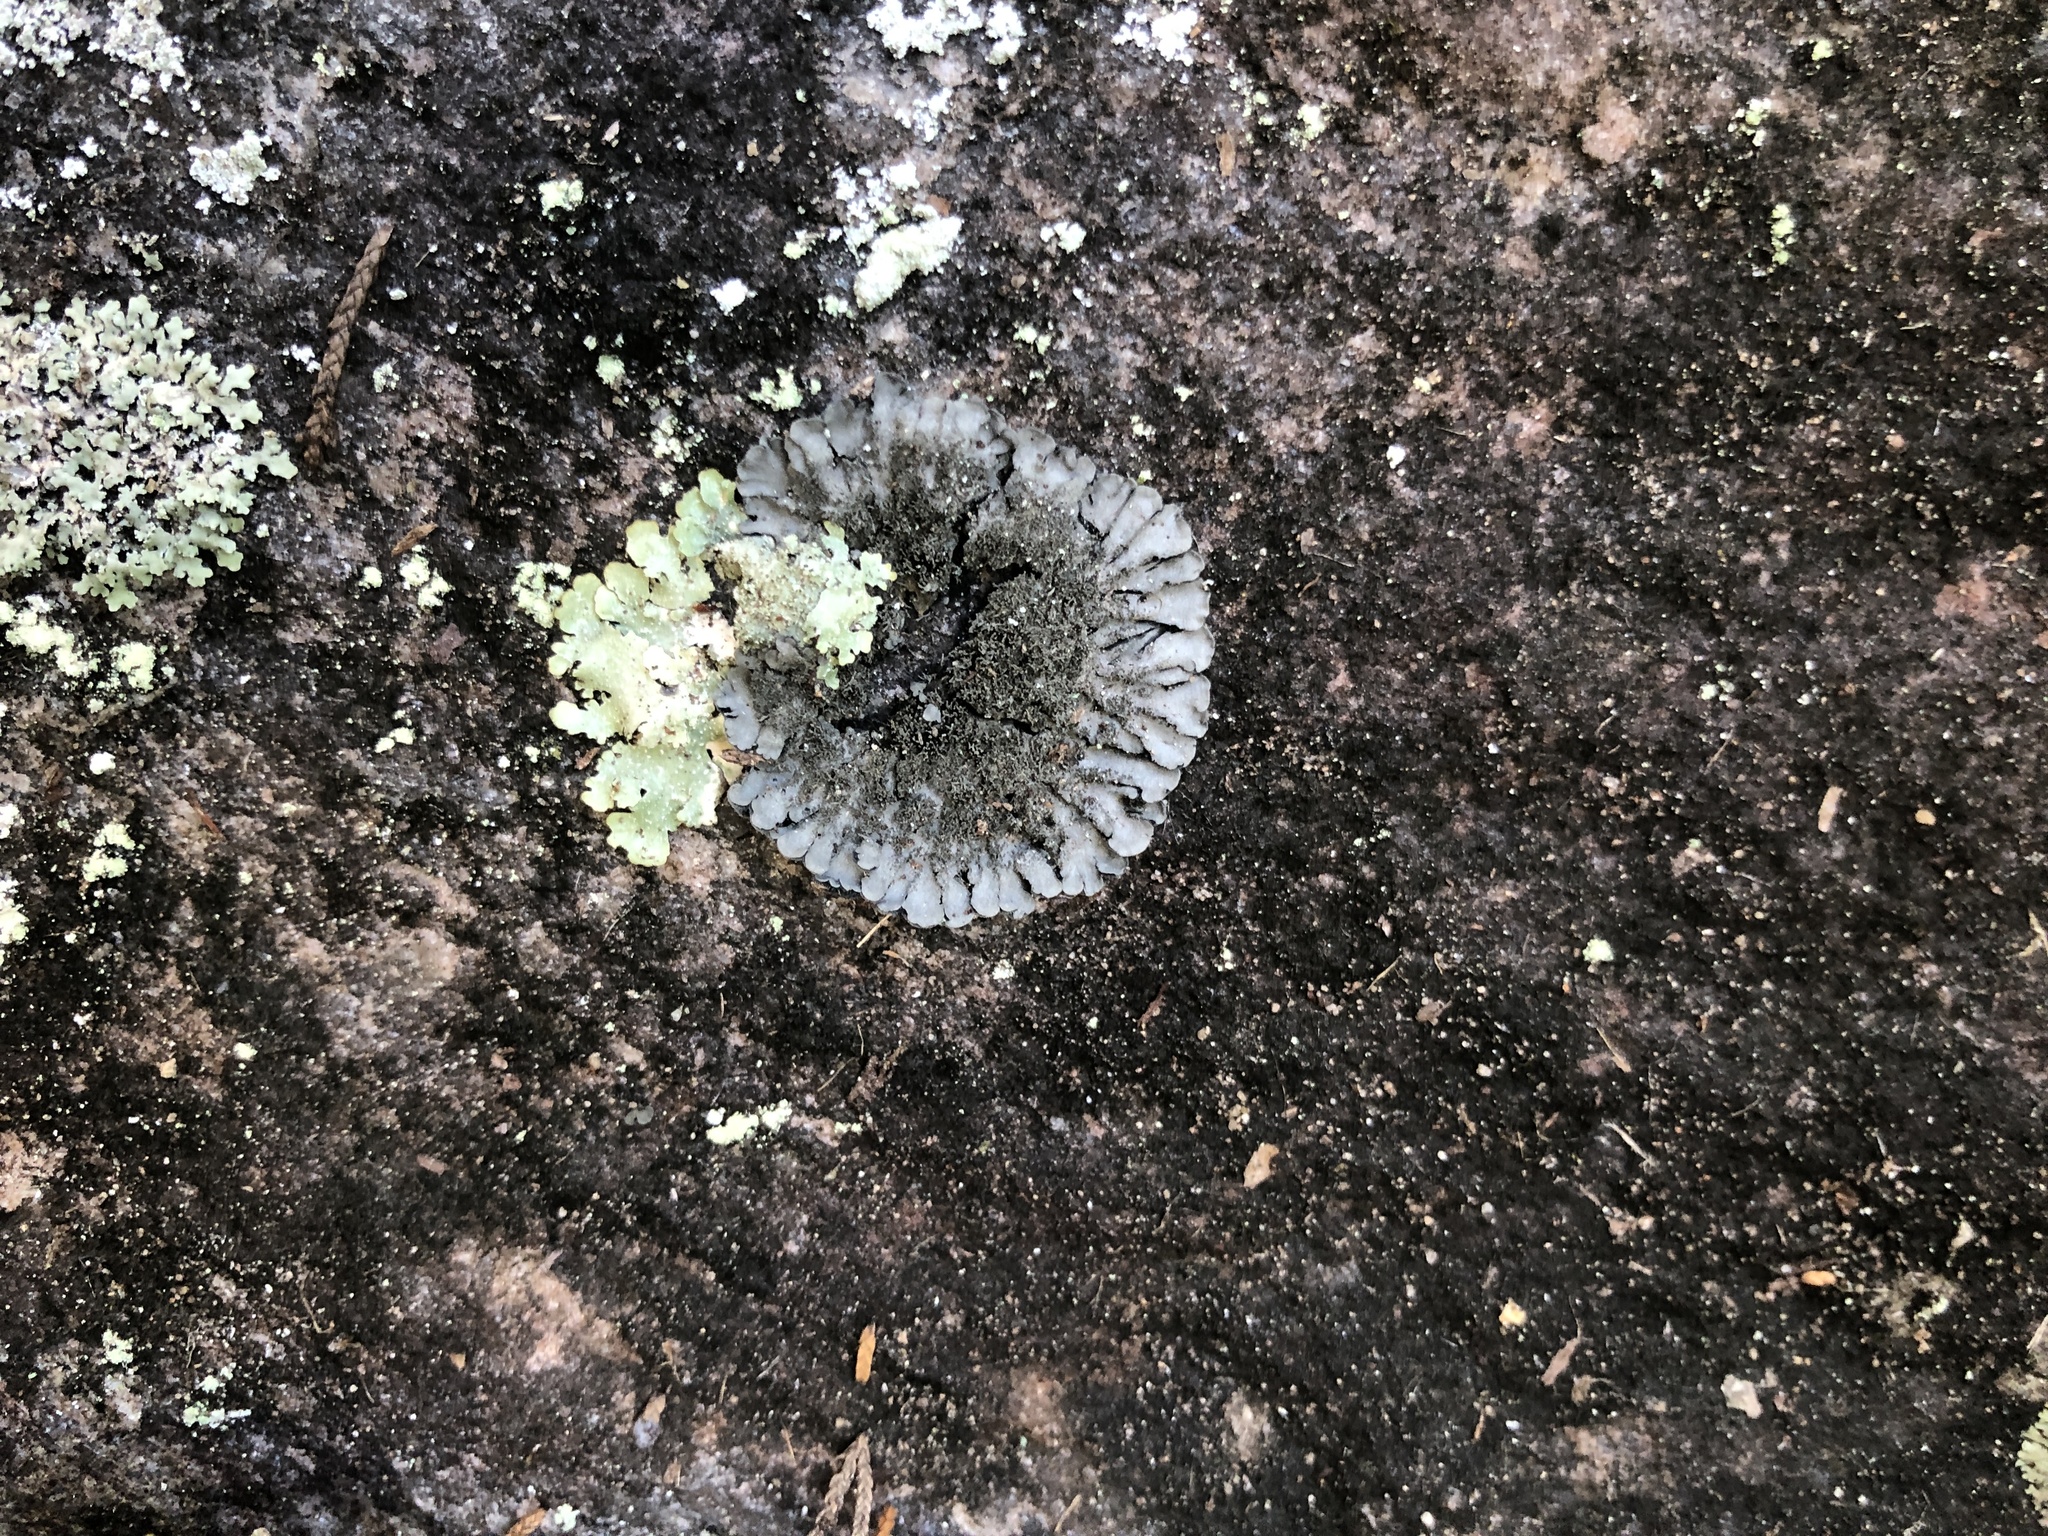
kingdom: Fungi
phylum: Ascomycota
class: Lecanoromycetes
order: Peltigerales
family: Coccocarpiaceae
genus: Coccocarpia
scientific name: Coccocarpia palmicola
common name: Salted shell lichen
